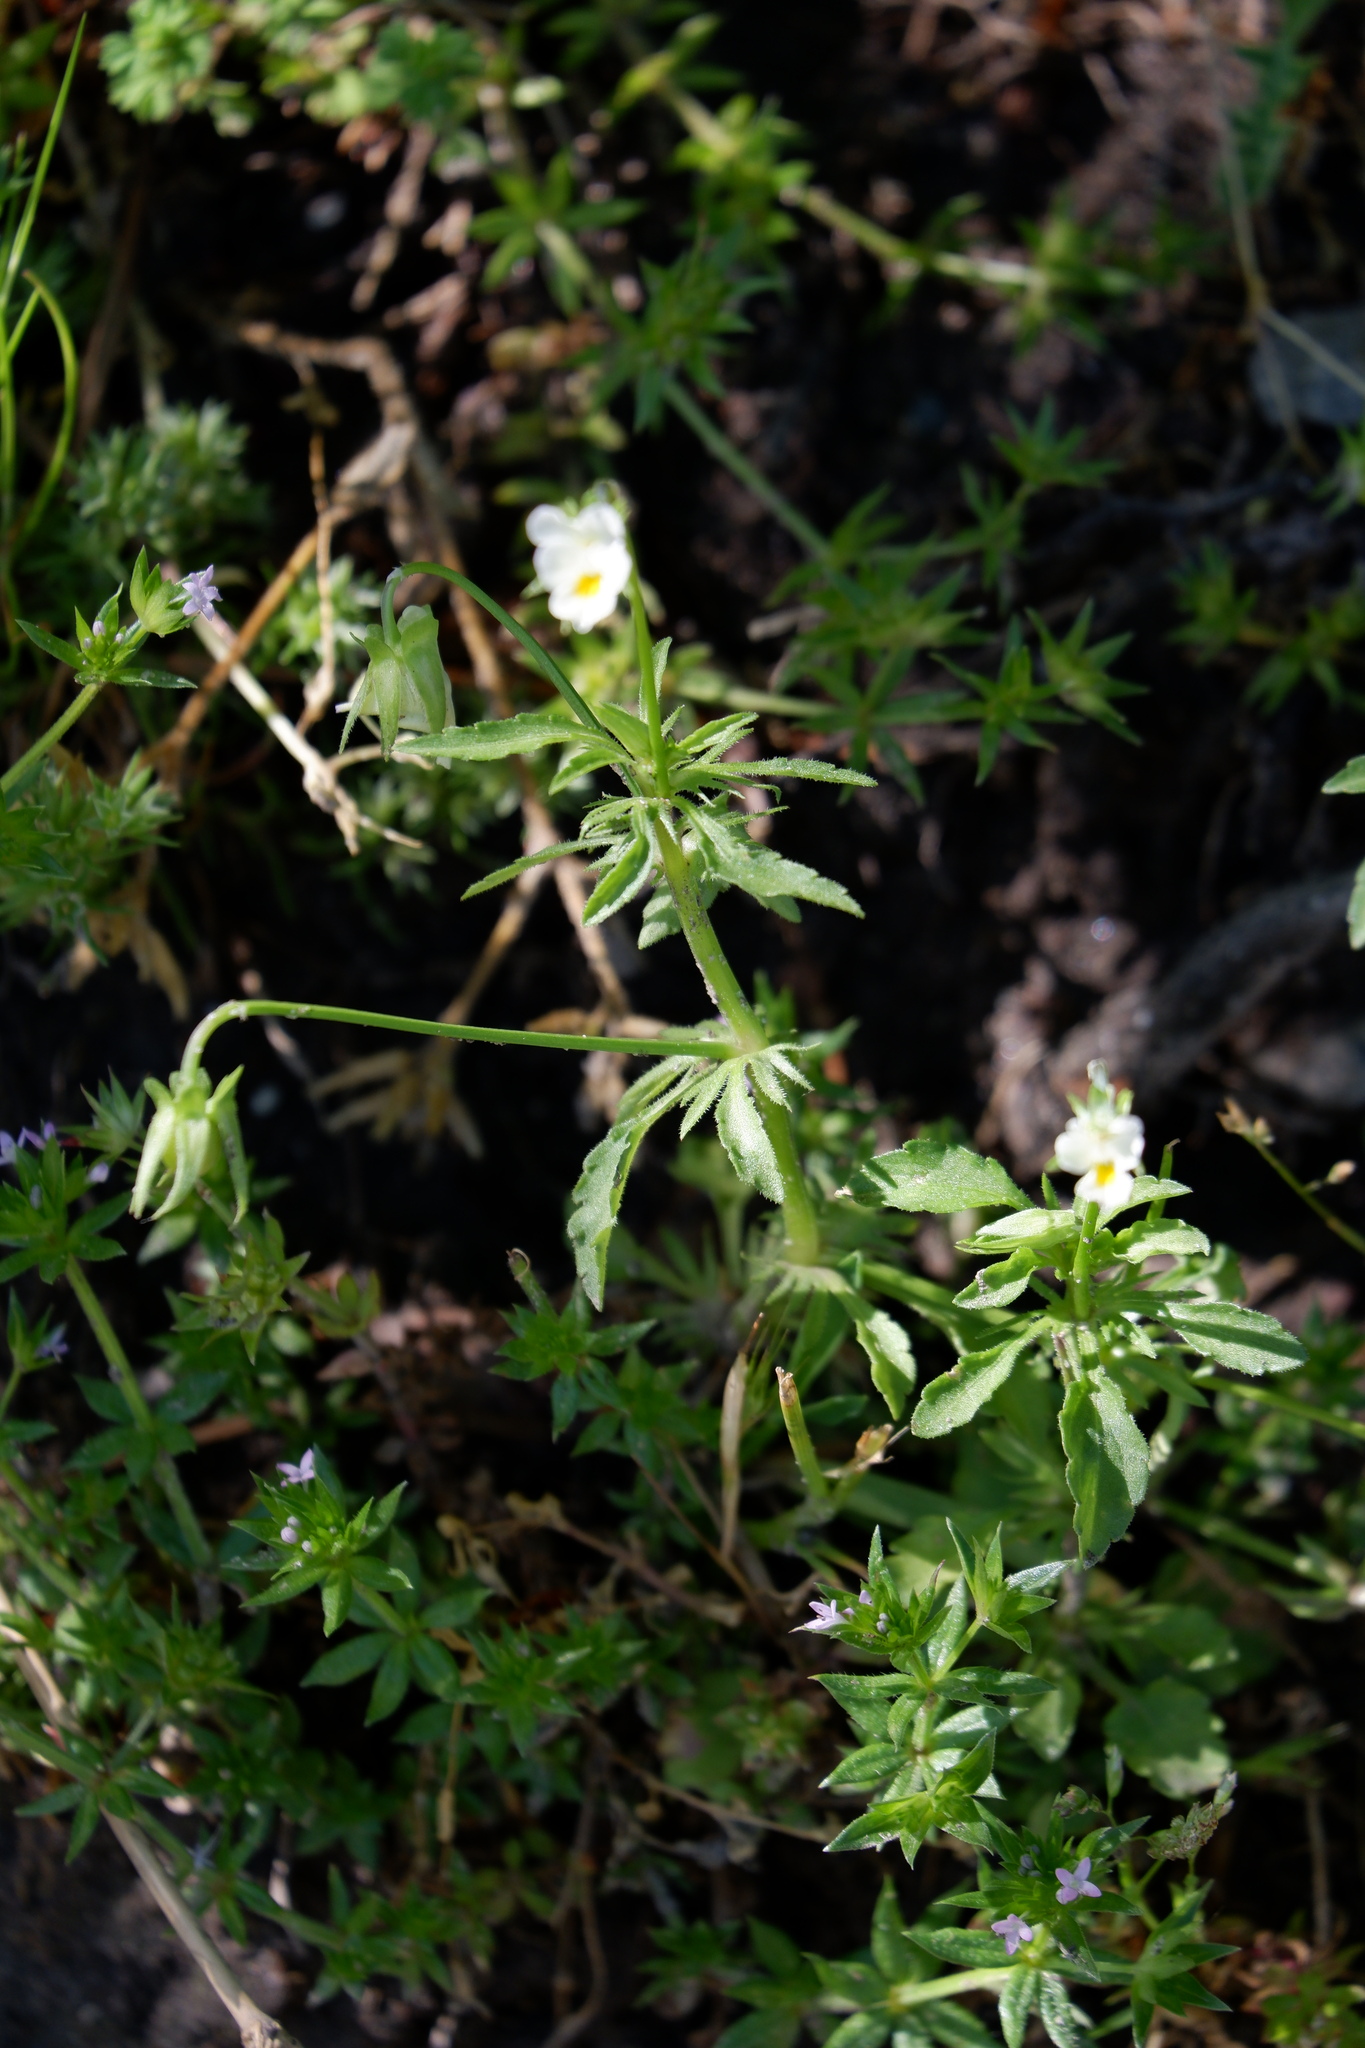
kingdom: Plantae
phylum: Tracheophyta
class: Magnoliopsida
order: Malpighiales
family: Violaceae
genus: Viola
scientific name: Viola arvensis
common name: Field pansy
